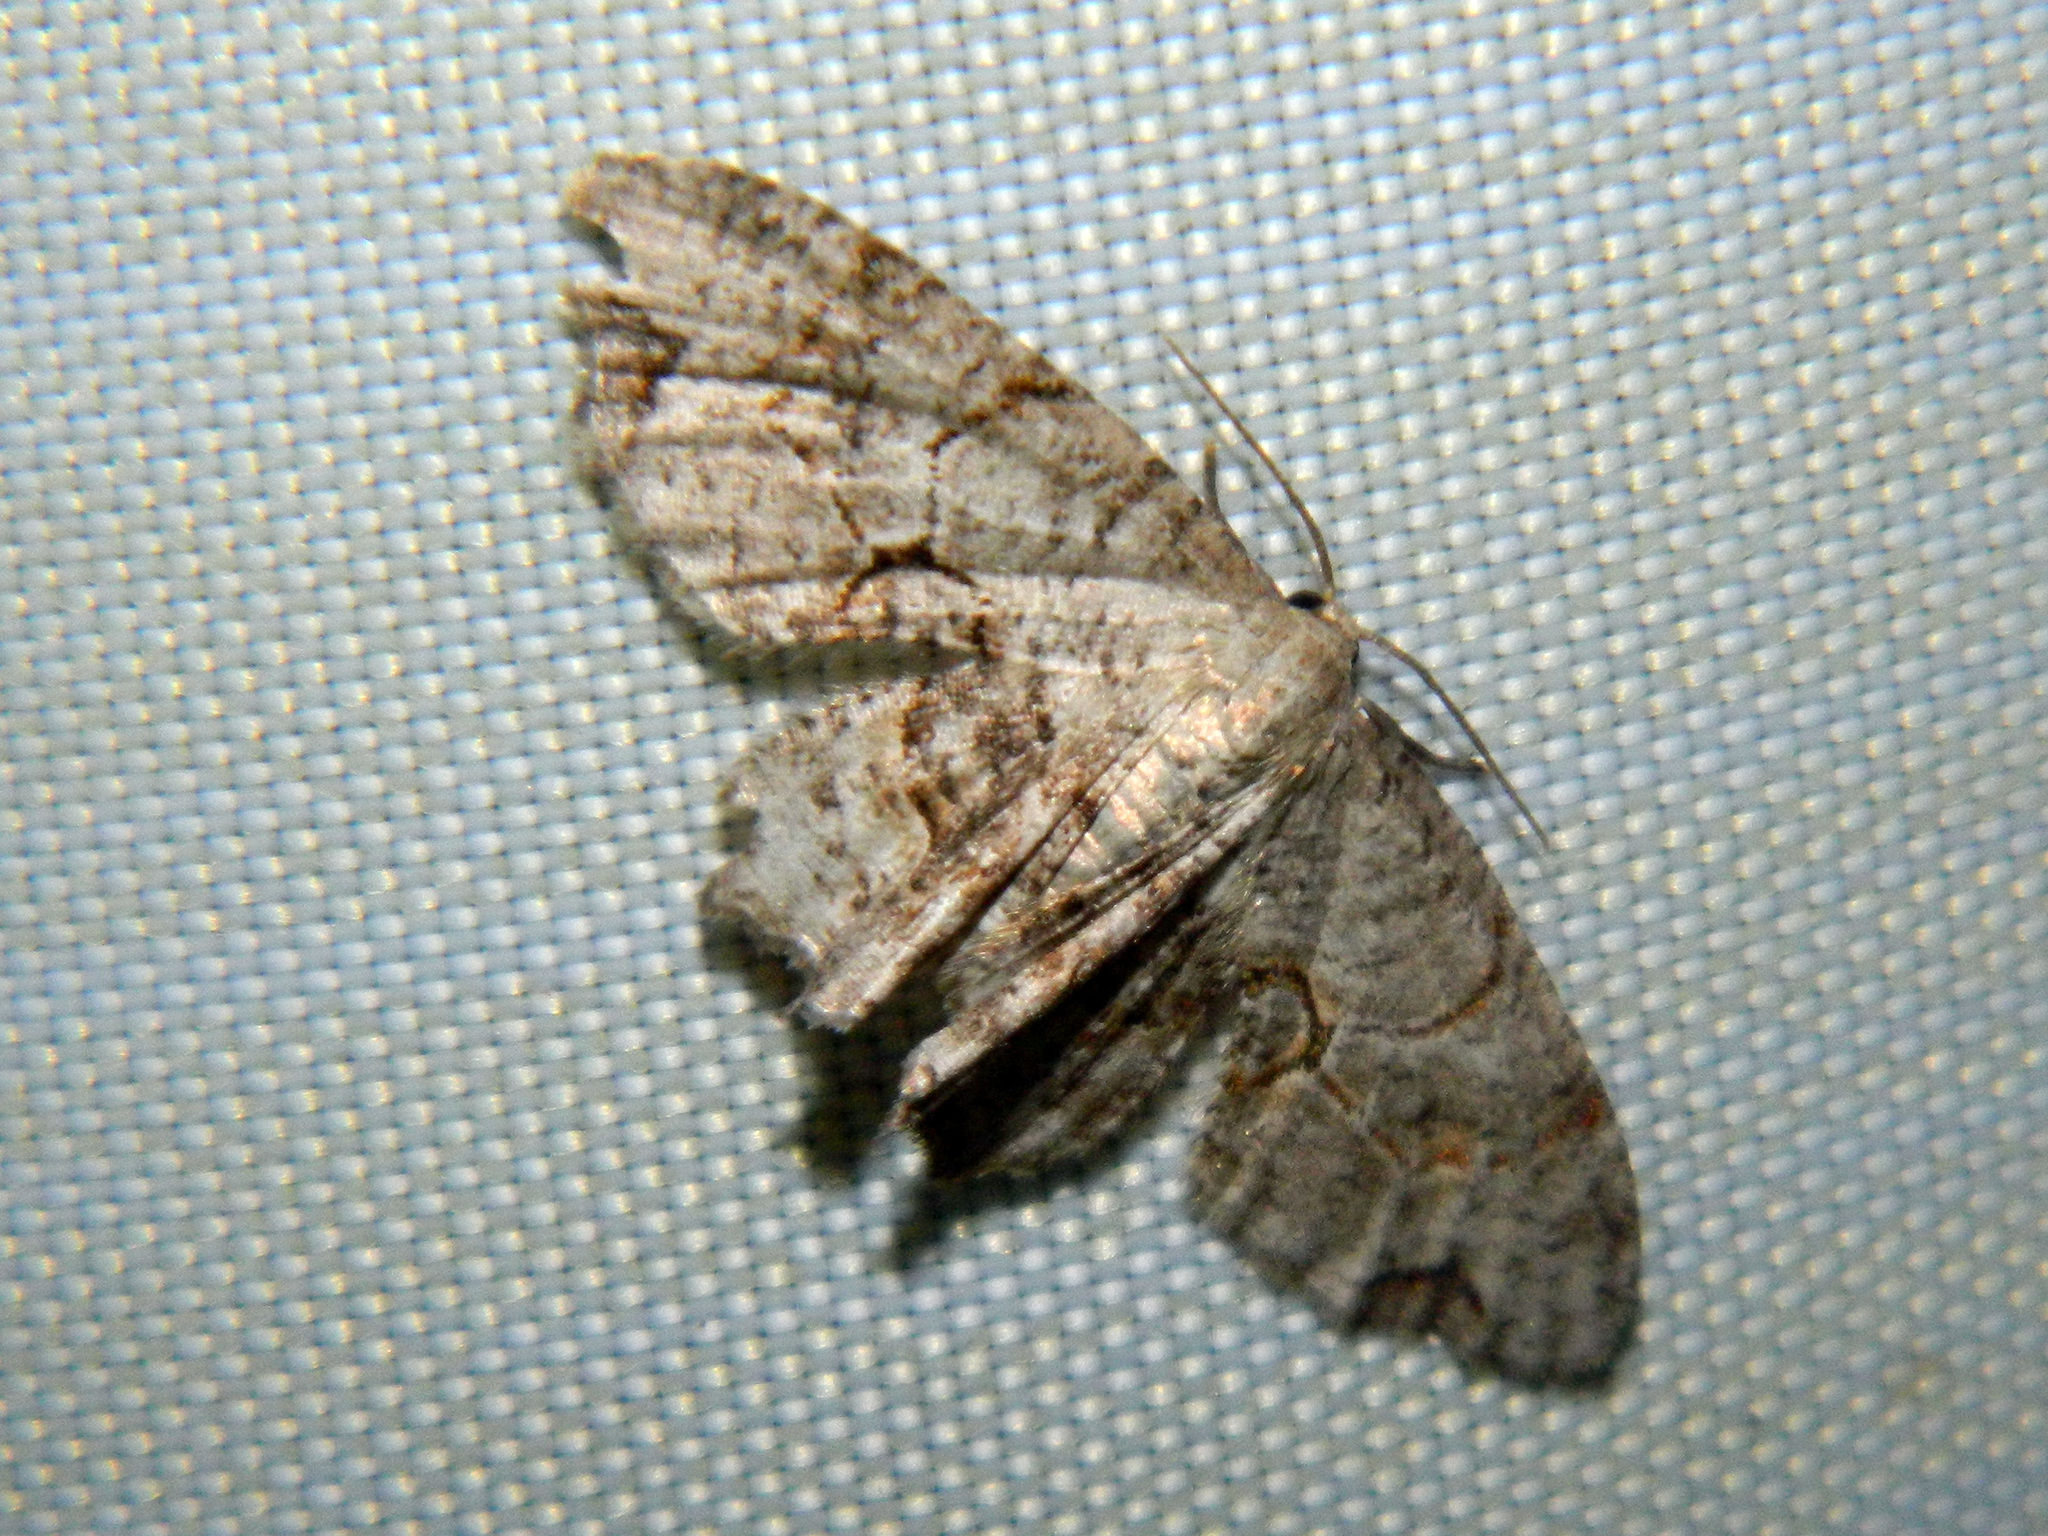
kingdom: Animalia
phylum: Arthropoda
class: Insecta
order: Lepidoptera
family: Uraniidae
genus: Epiplema
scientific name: Epiplema Callizzia amorata
